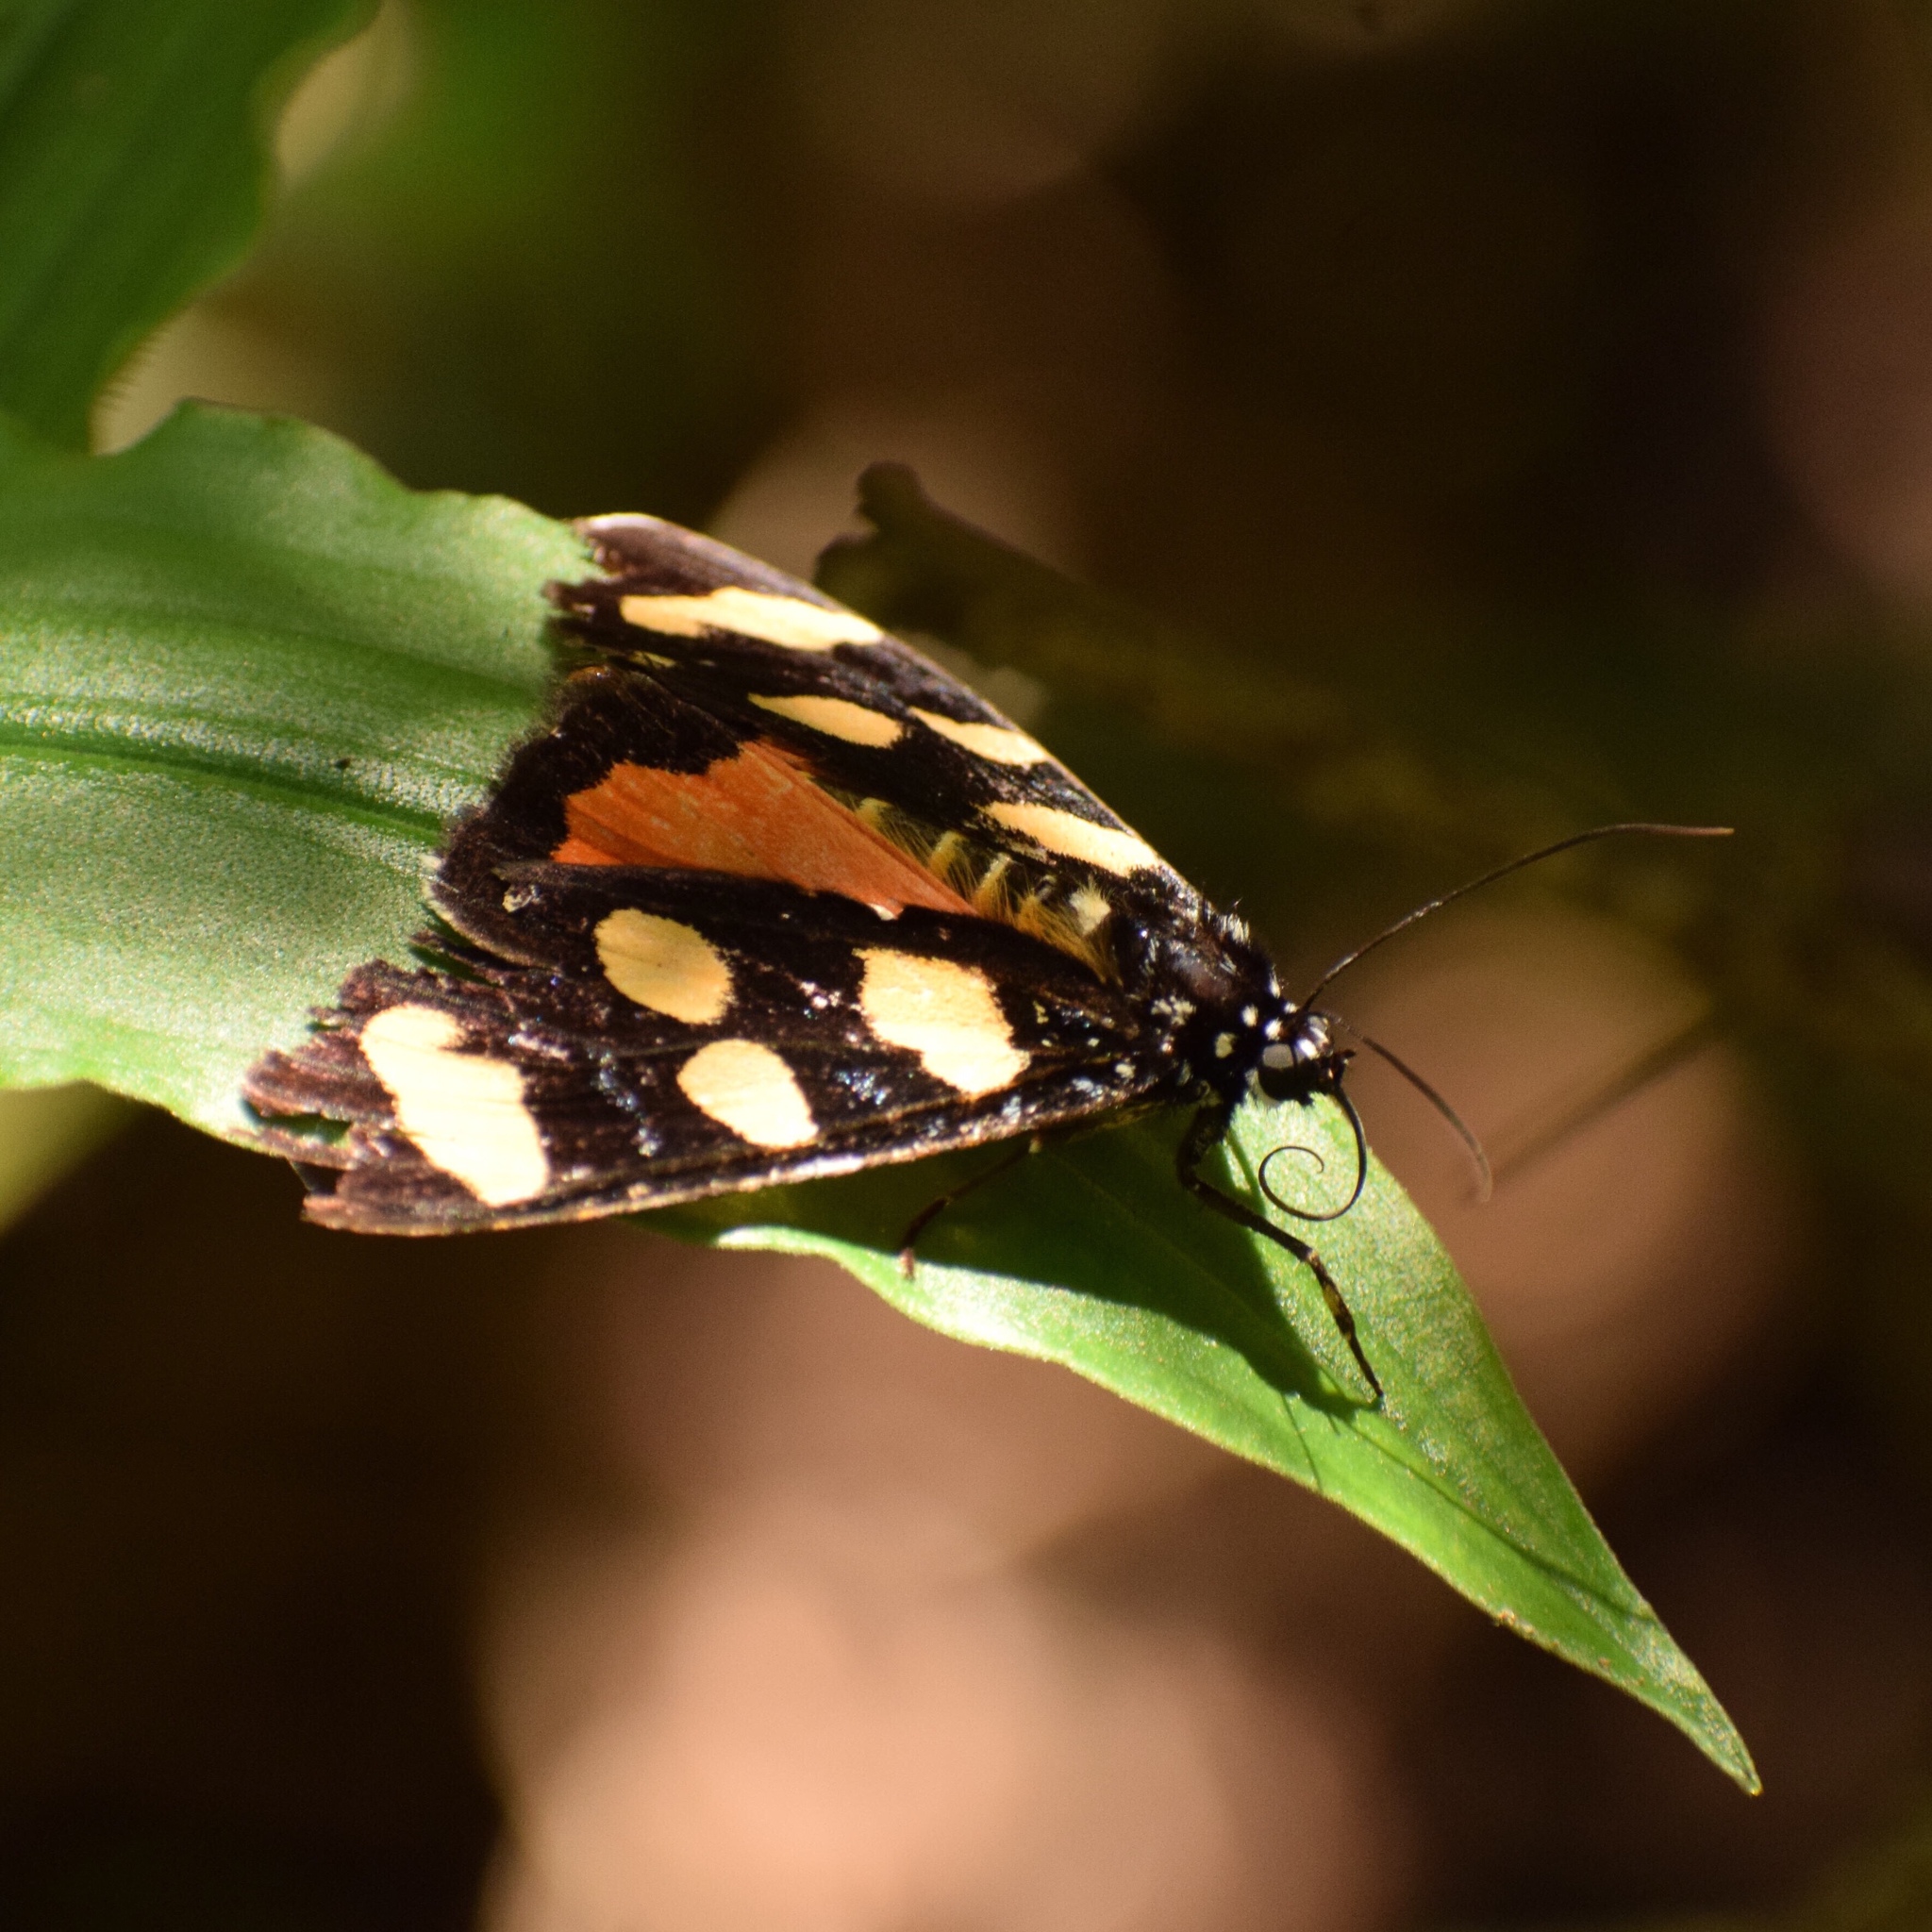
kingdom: Animalia
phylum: Arthropoda
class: Insecta
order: Lepidoptera
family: Noctuidae
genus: Heraclia
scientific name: Heraclia africana
